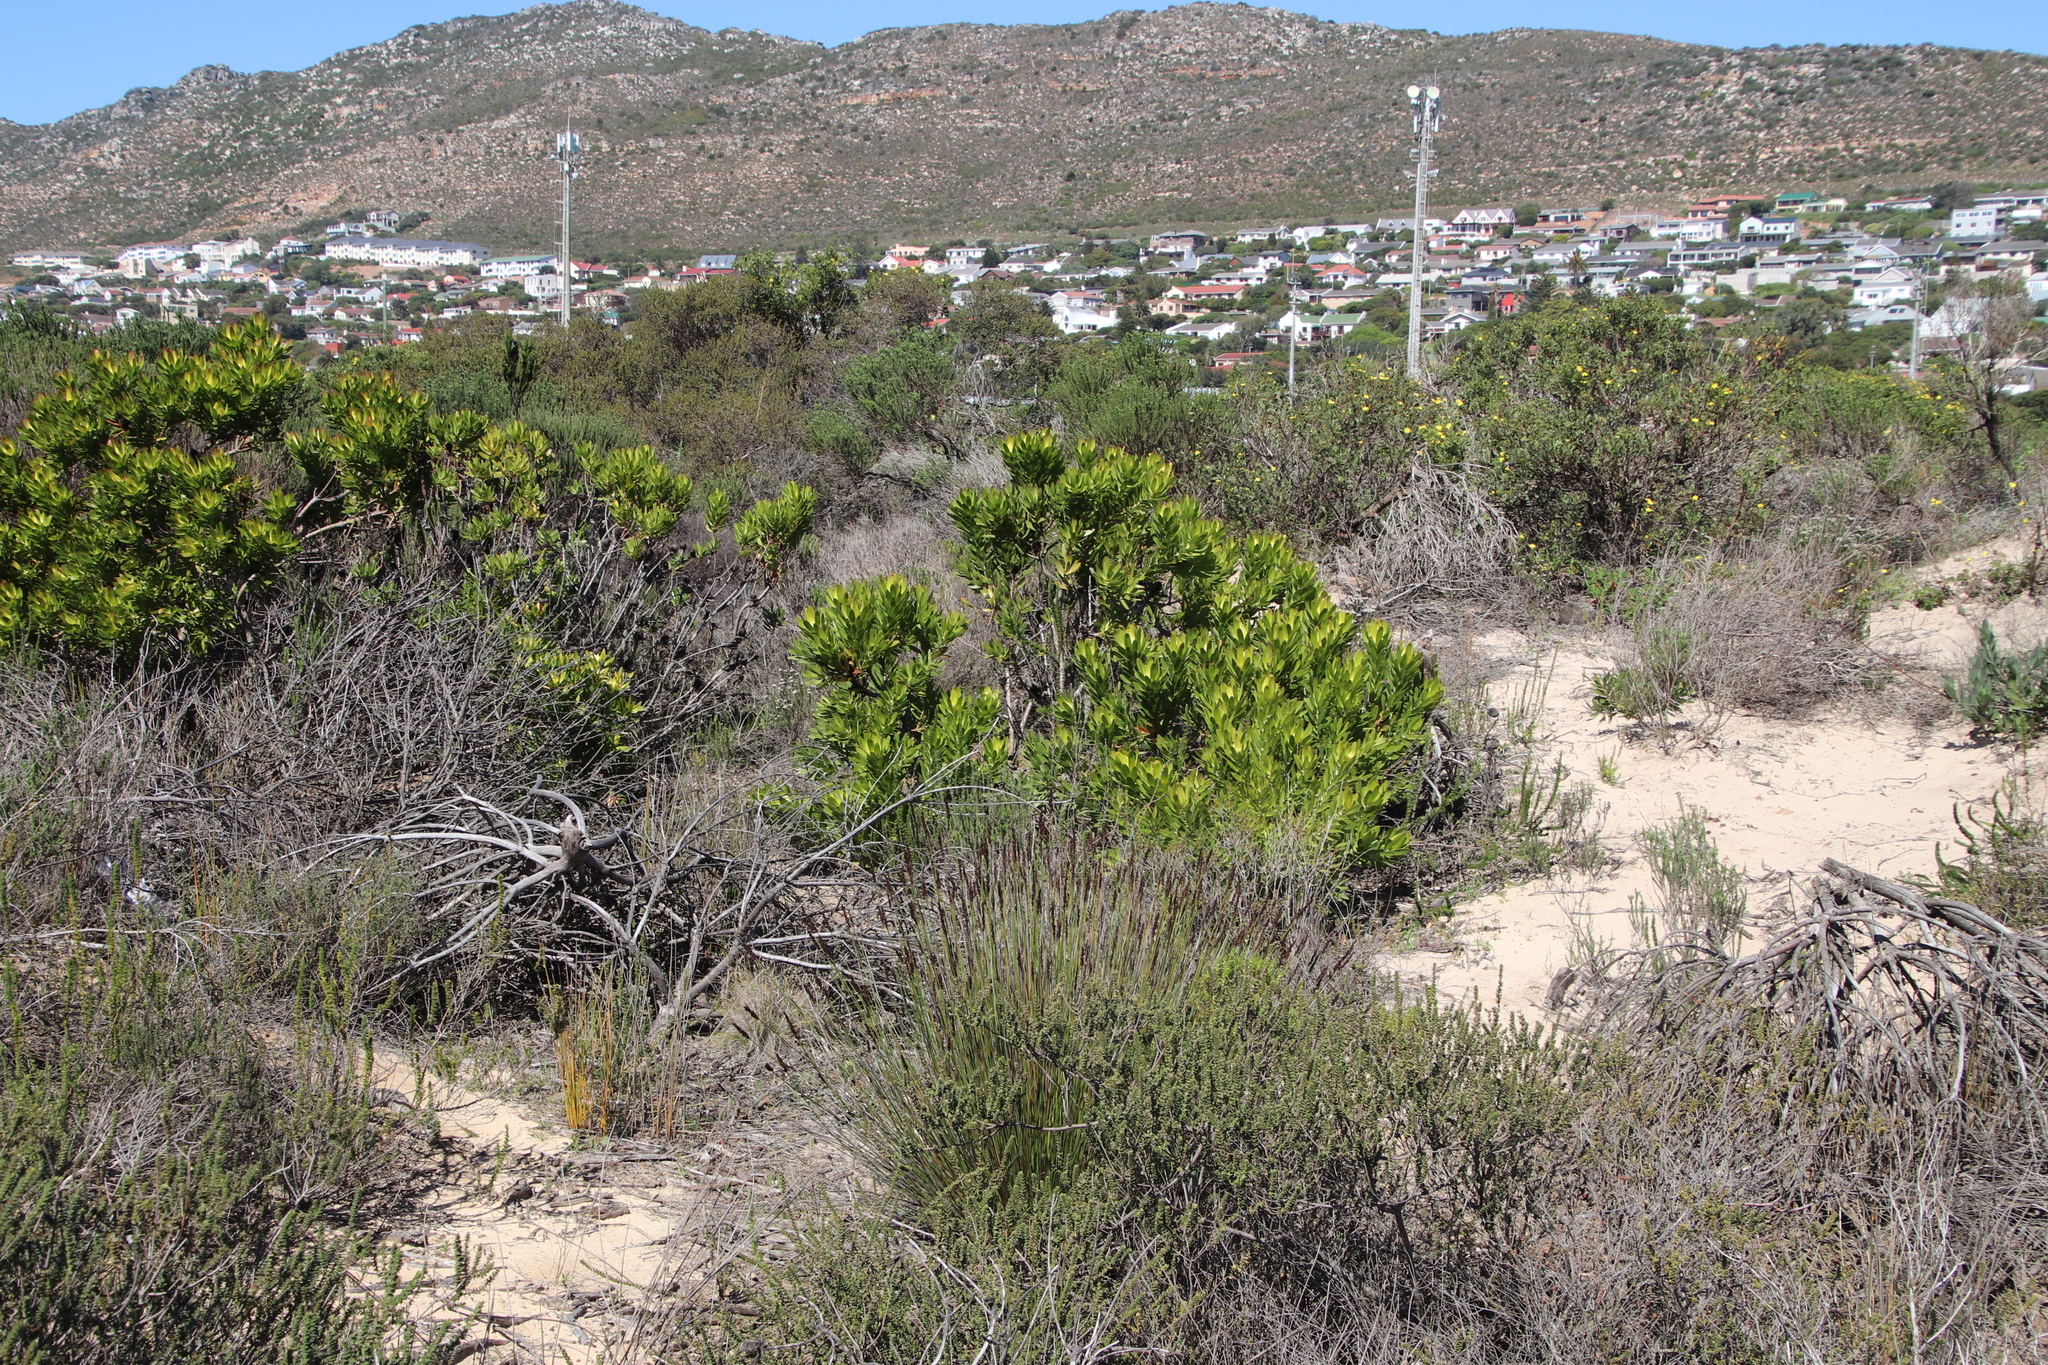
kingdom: Plantae
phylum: Tracheophyta
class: Magnoliopsida
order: Proteales
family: Proteaceae
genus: Leucadendron
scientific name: Leucadendron laureolum
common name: Golden sunshinebush
